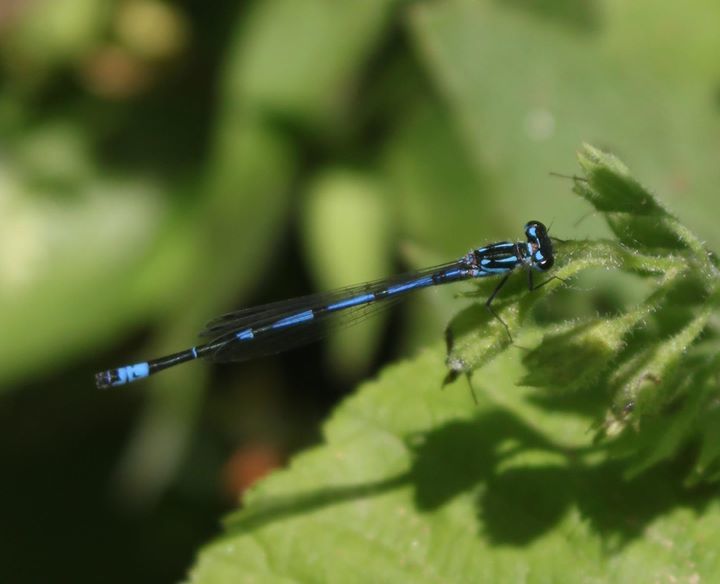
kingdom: Animalia
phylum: Arthropoda
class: Insecta
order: Odonata
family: Coenagrionidae
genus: Coenagrion
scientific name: Coenagrion pulchellum
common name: Variable bluet
